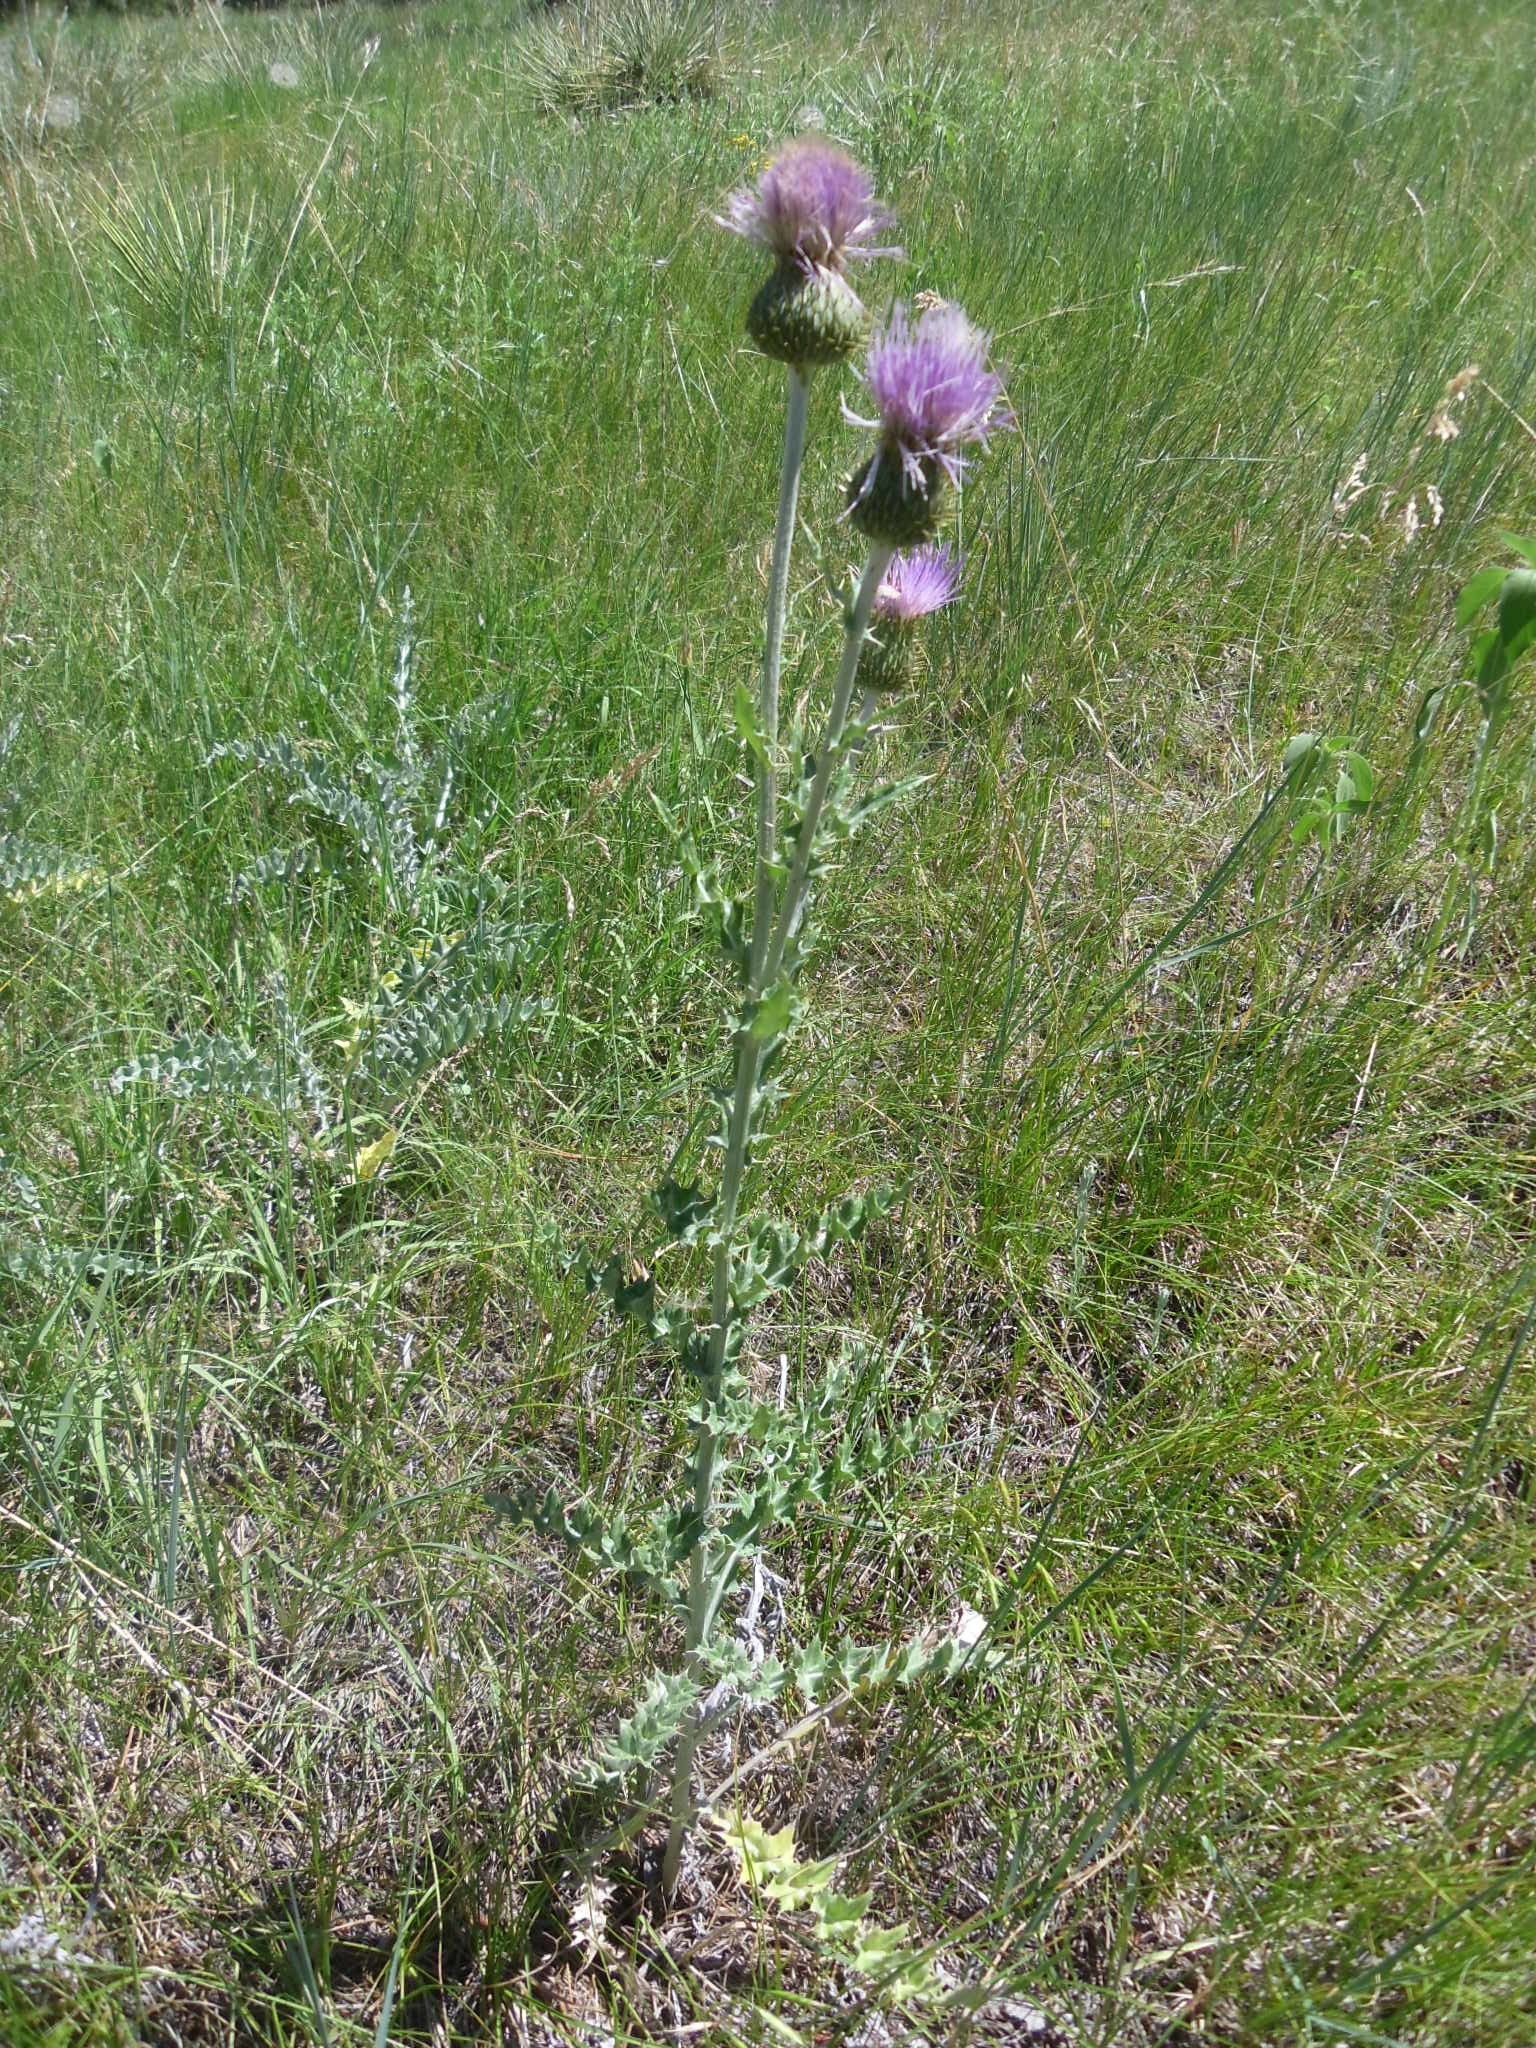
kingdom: Plantae
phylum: Tracheophyta
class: Magnoliopsida
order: Asterales
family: Asteraceae
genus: Cirsium
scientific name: Cirsium undulatum
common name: Pasture thistle
